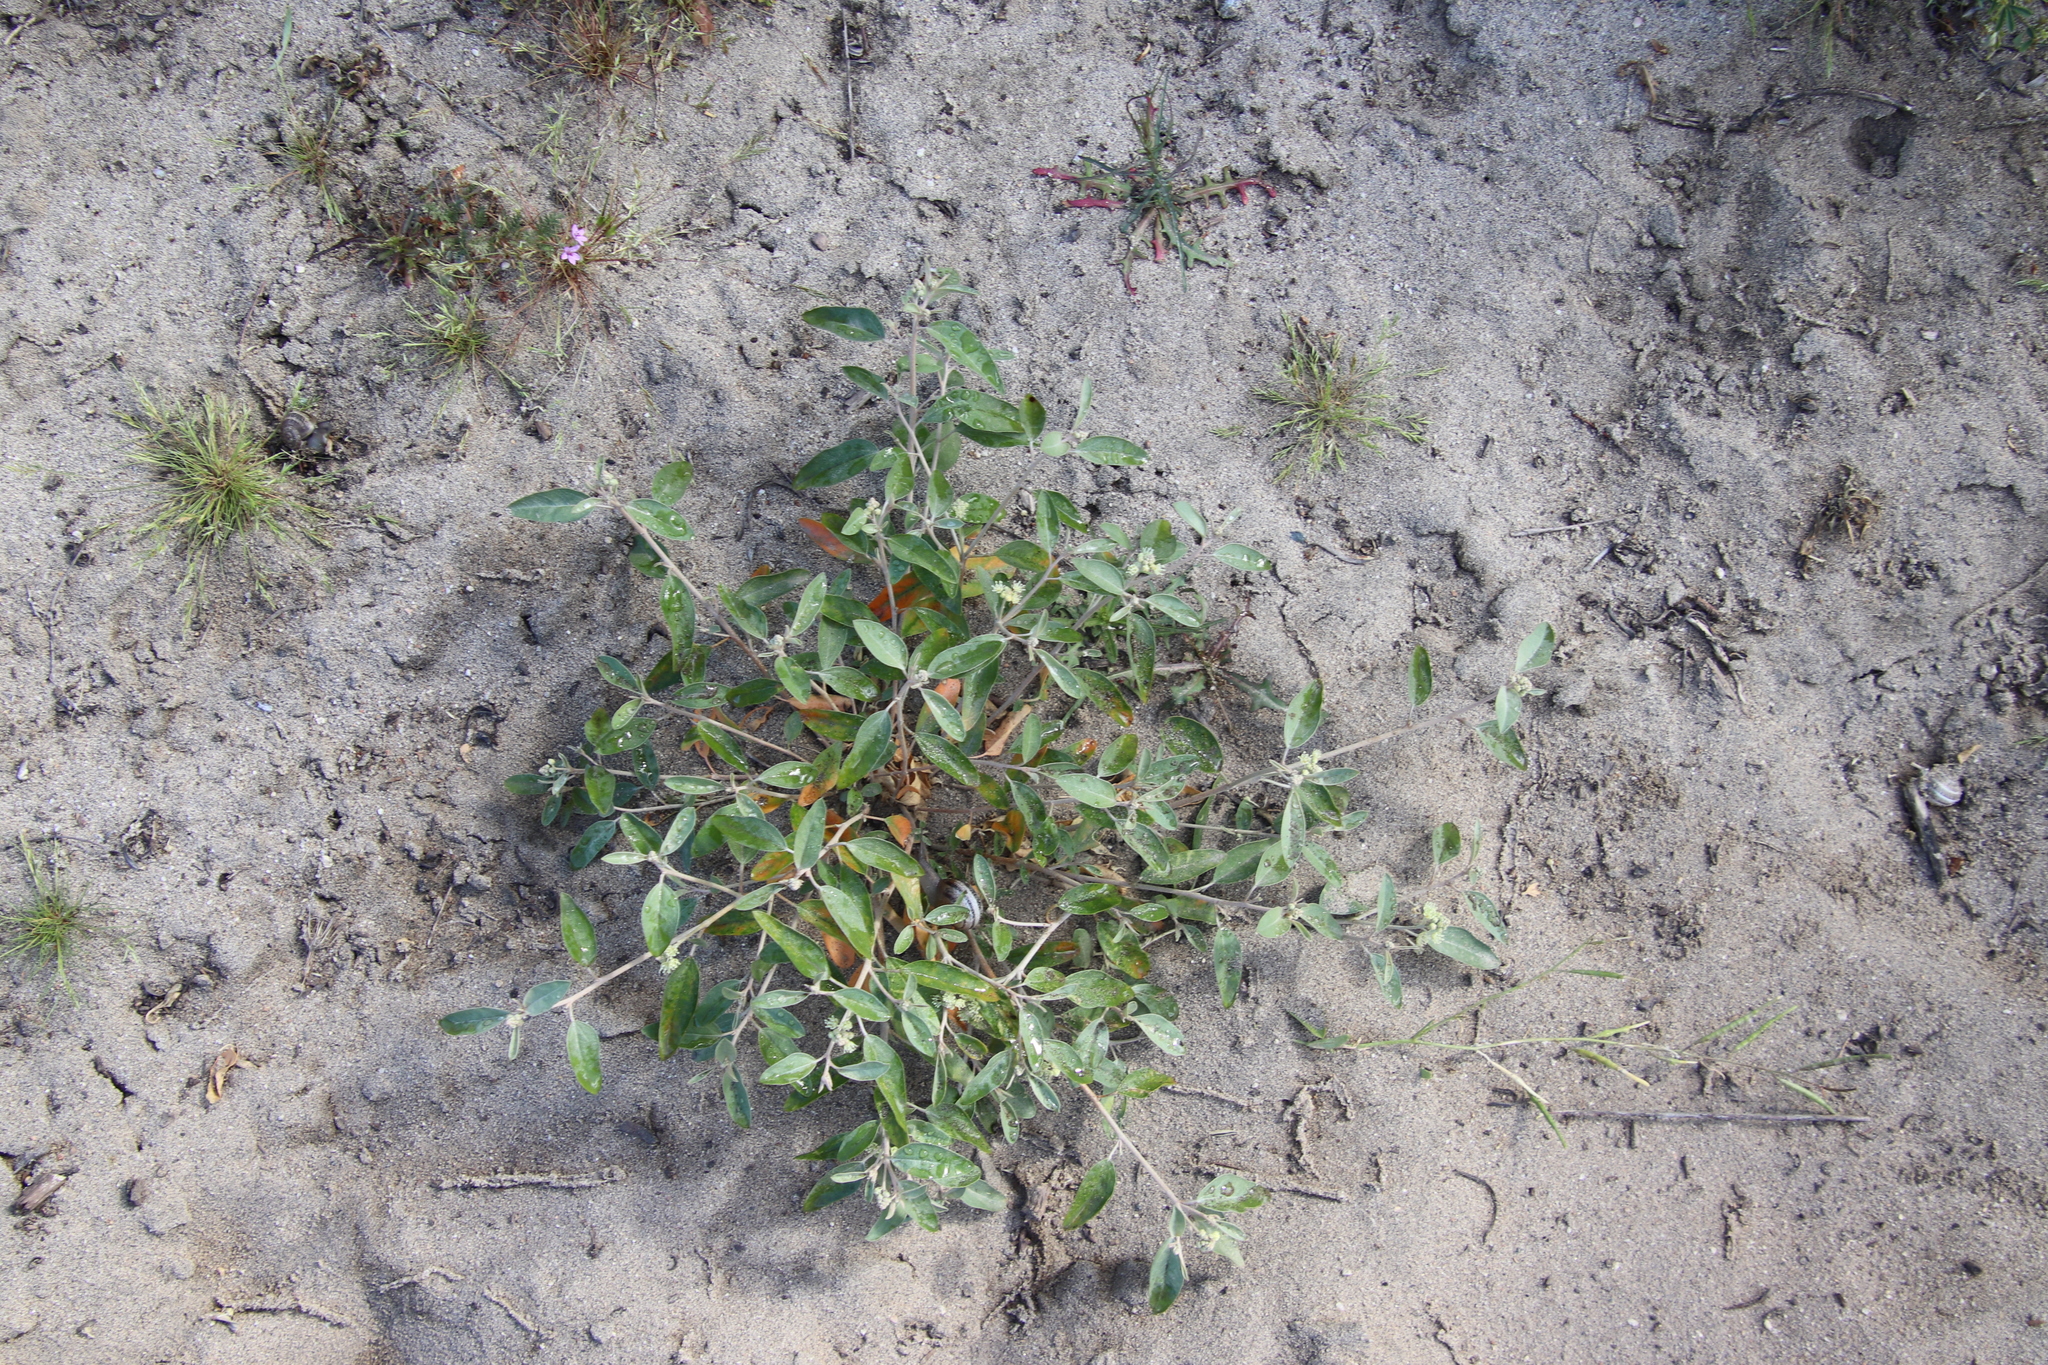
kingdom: Plantae
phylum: Tracheophyta
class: Magnoliopsida
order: Malpighiales
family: Euphorbiaceae
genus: Croton
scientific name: Croton californicus
